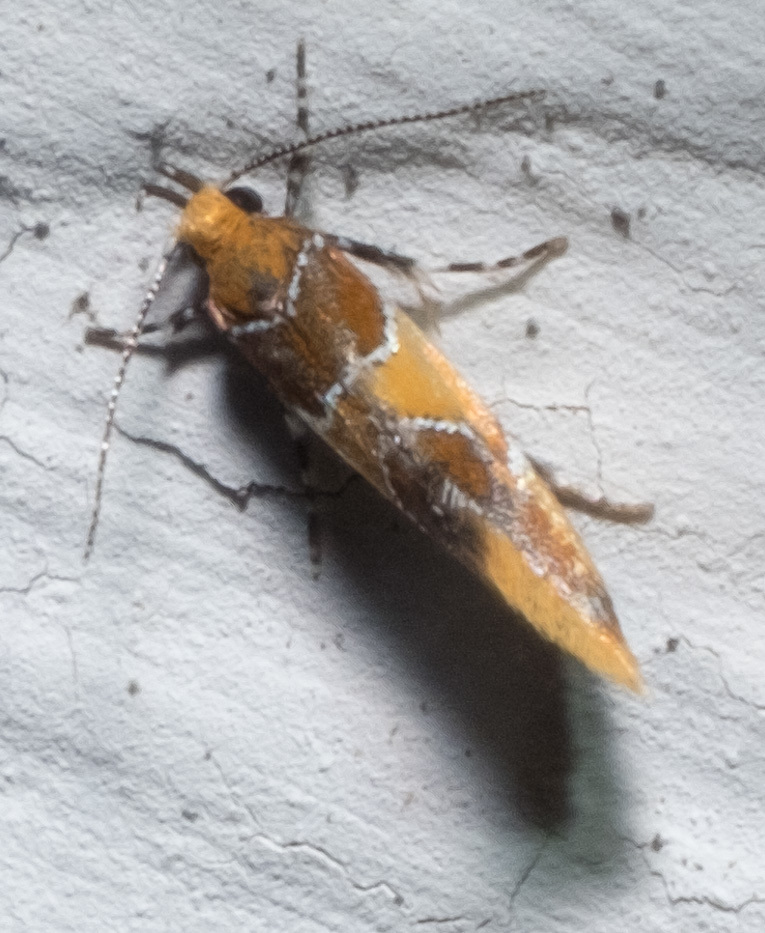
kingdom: Animalia
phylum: Arthropoda
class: Insecta
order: Lepidoptera
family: Oecophoridae
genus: Callima
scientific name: Callima argenticinctella
